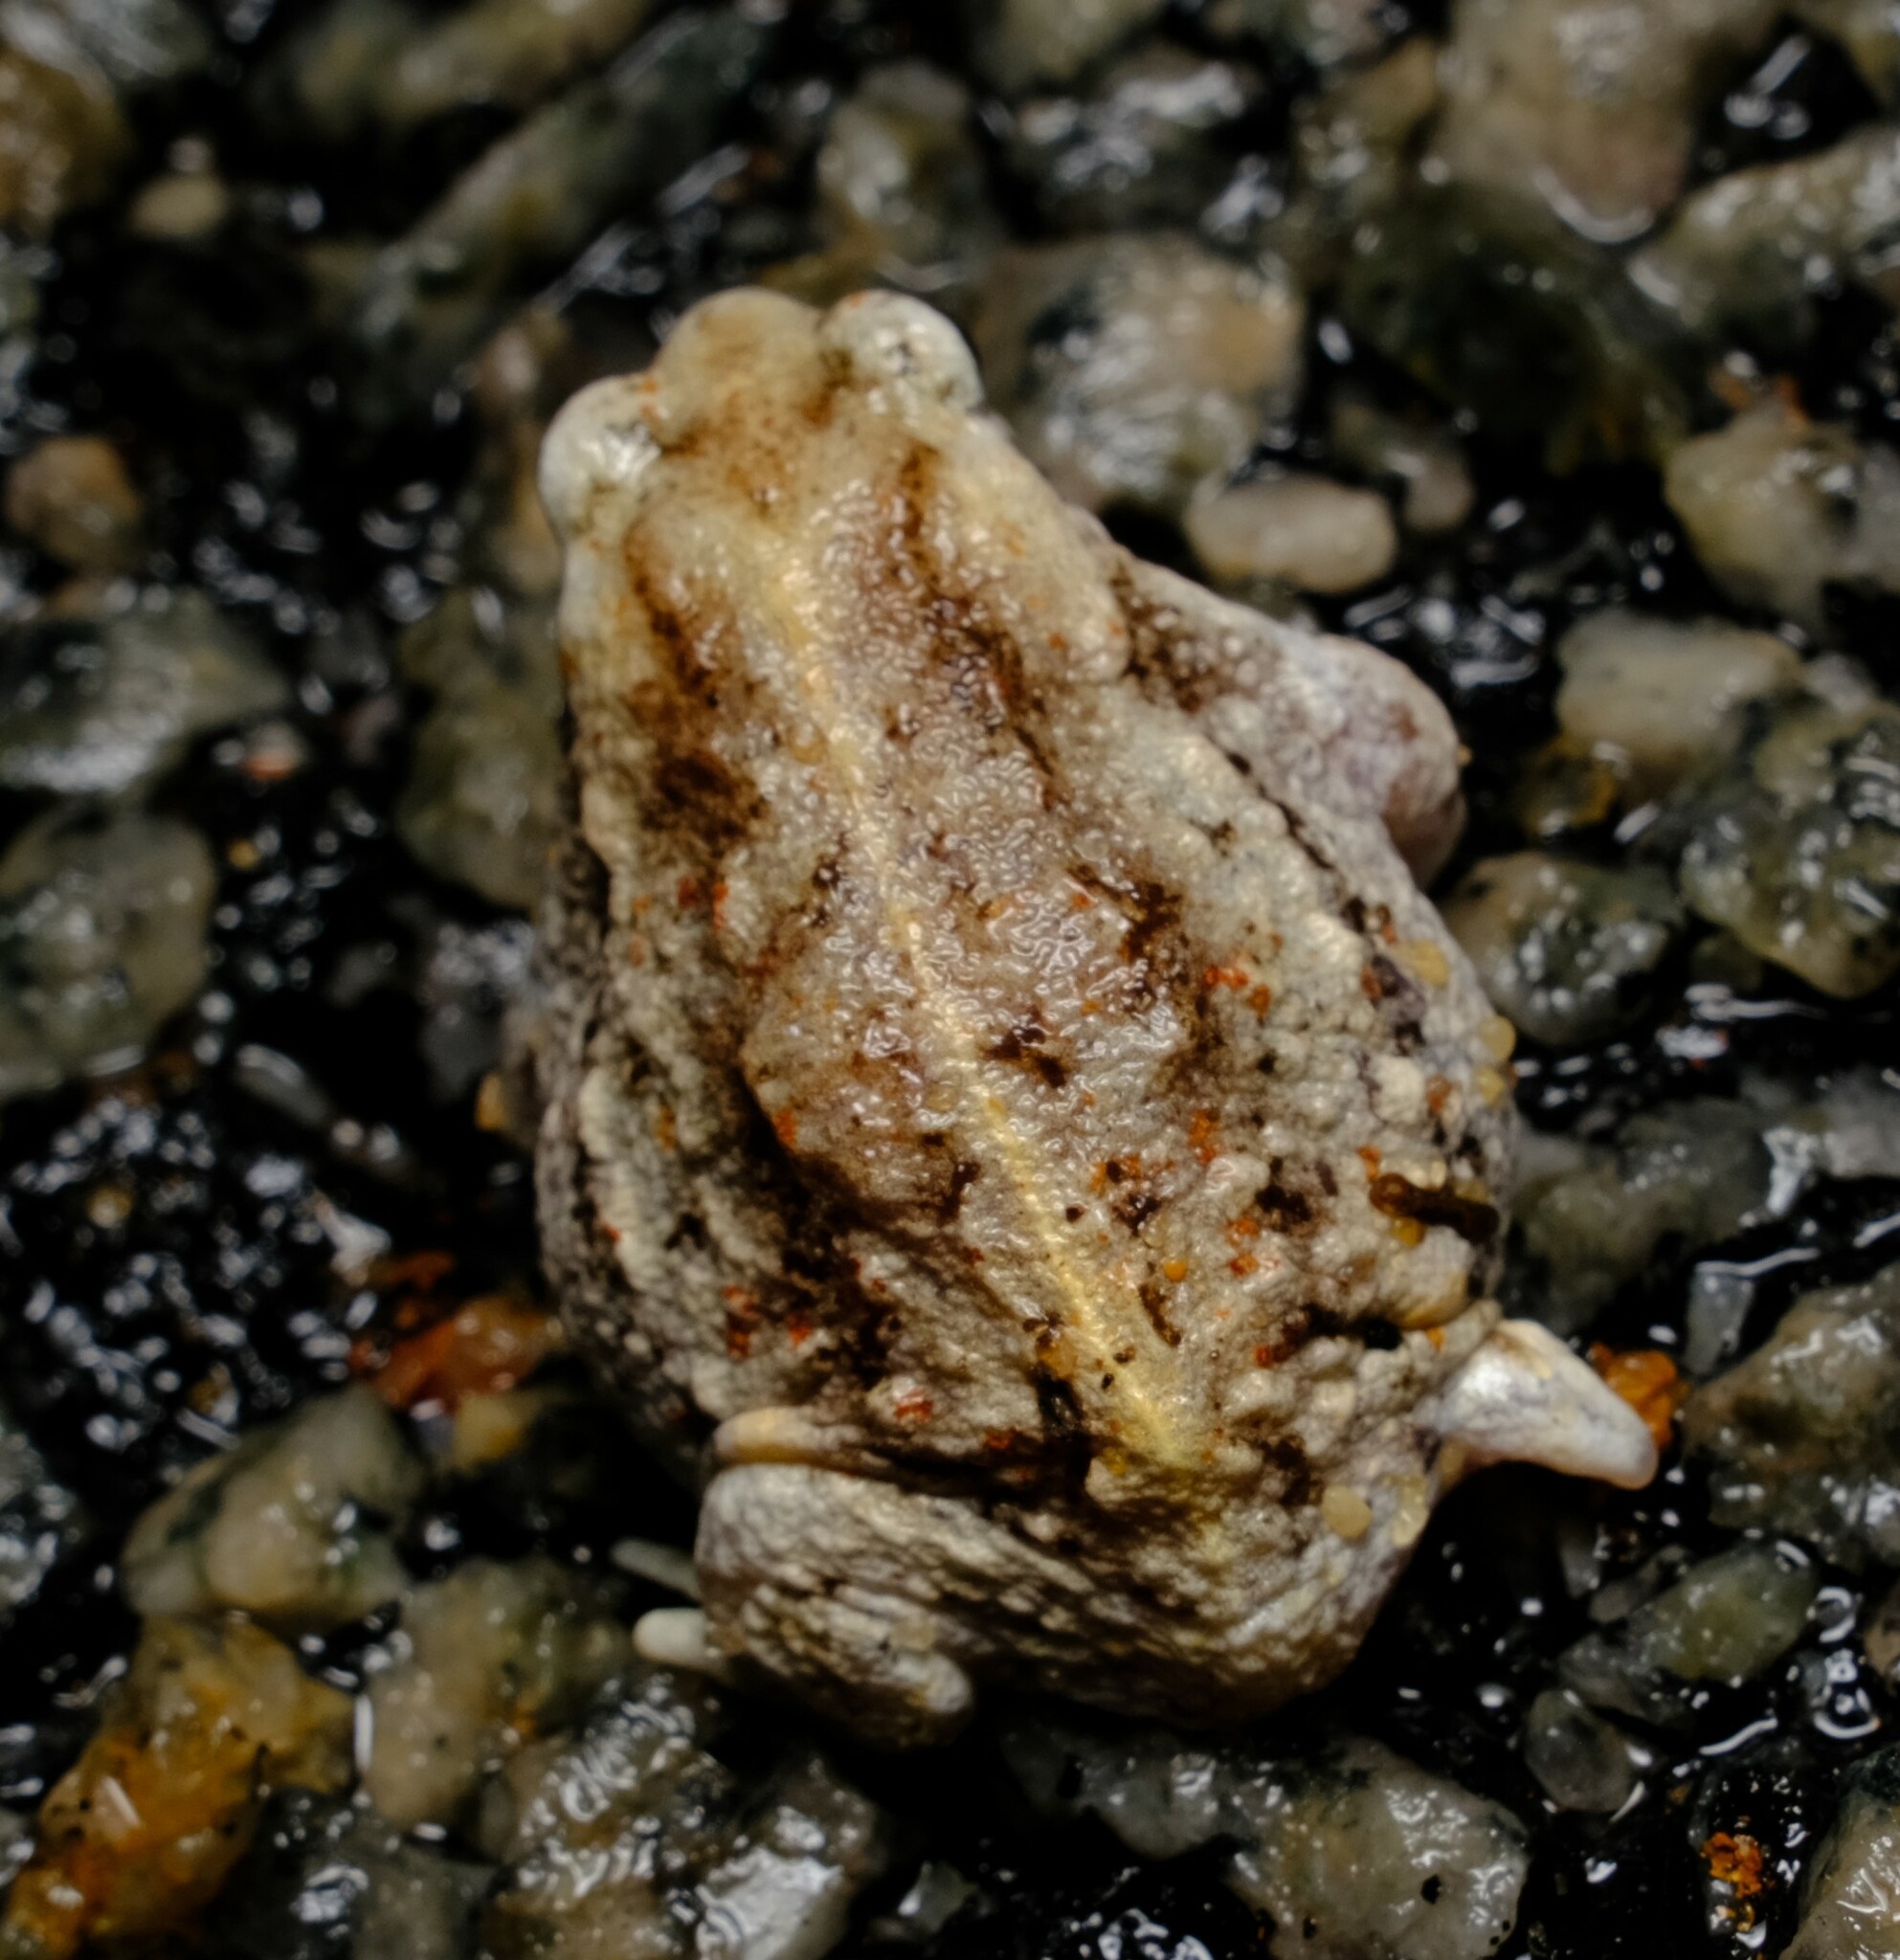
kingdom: Animalia
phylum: Chordata
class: Amphibia
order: Anura
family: Myobatrachidae
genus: Arenophryne
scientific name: Arenophryne xiphorhyncha
